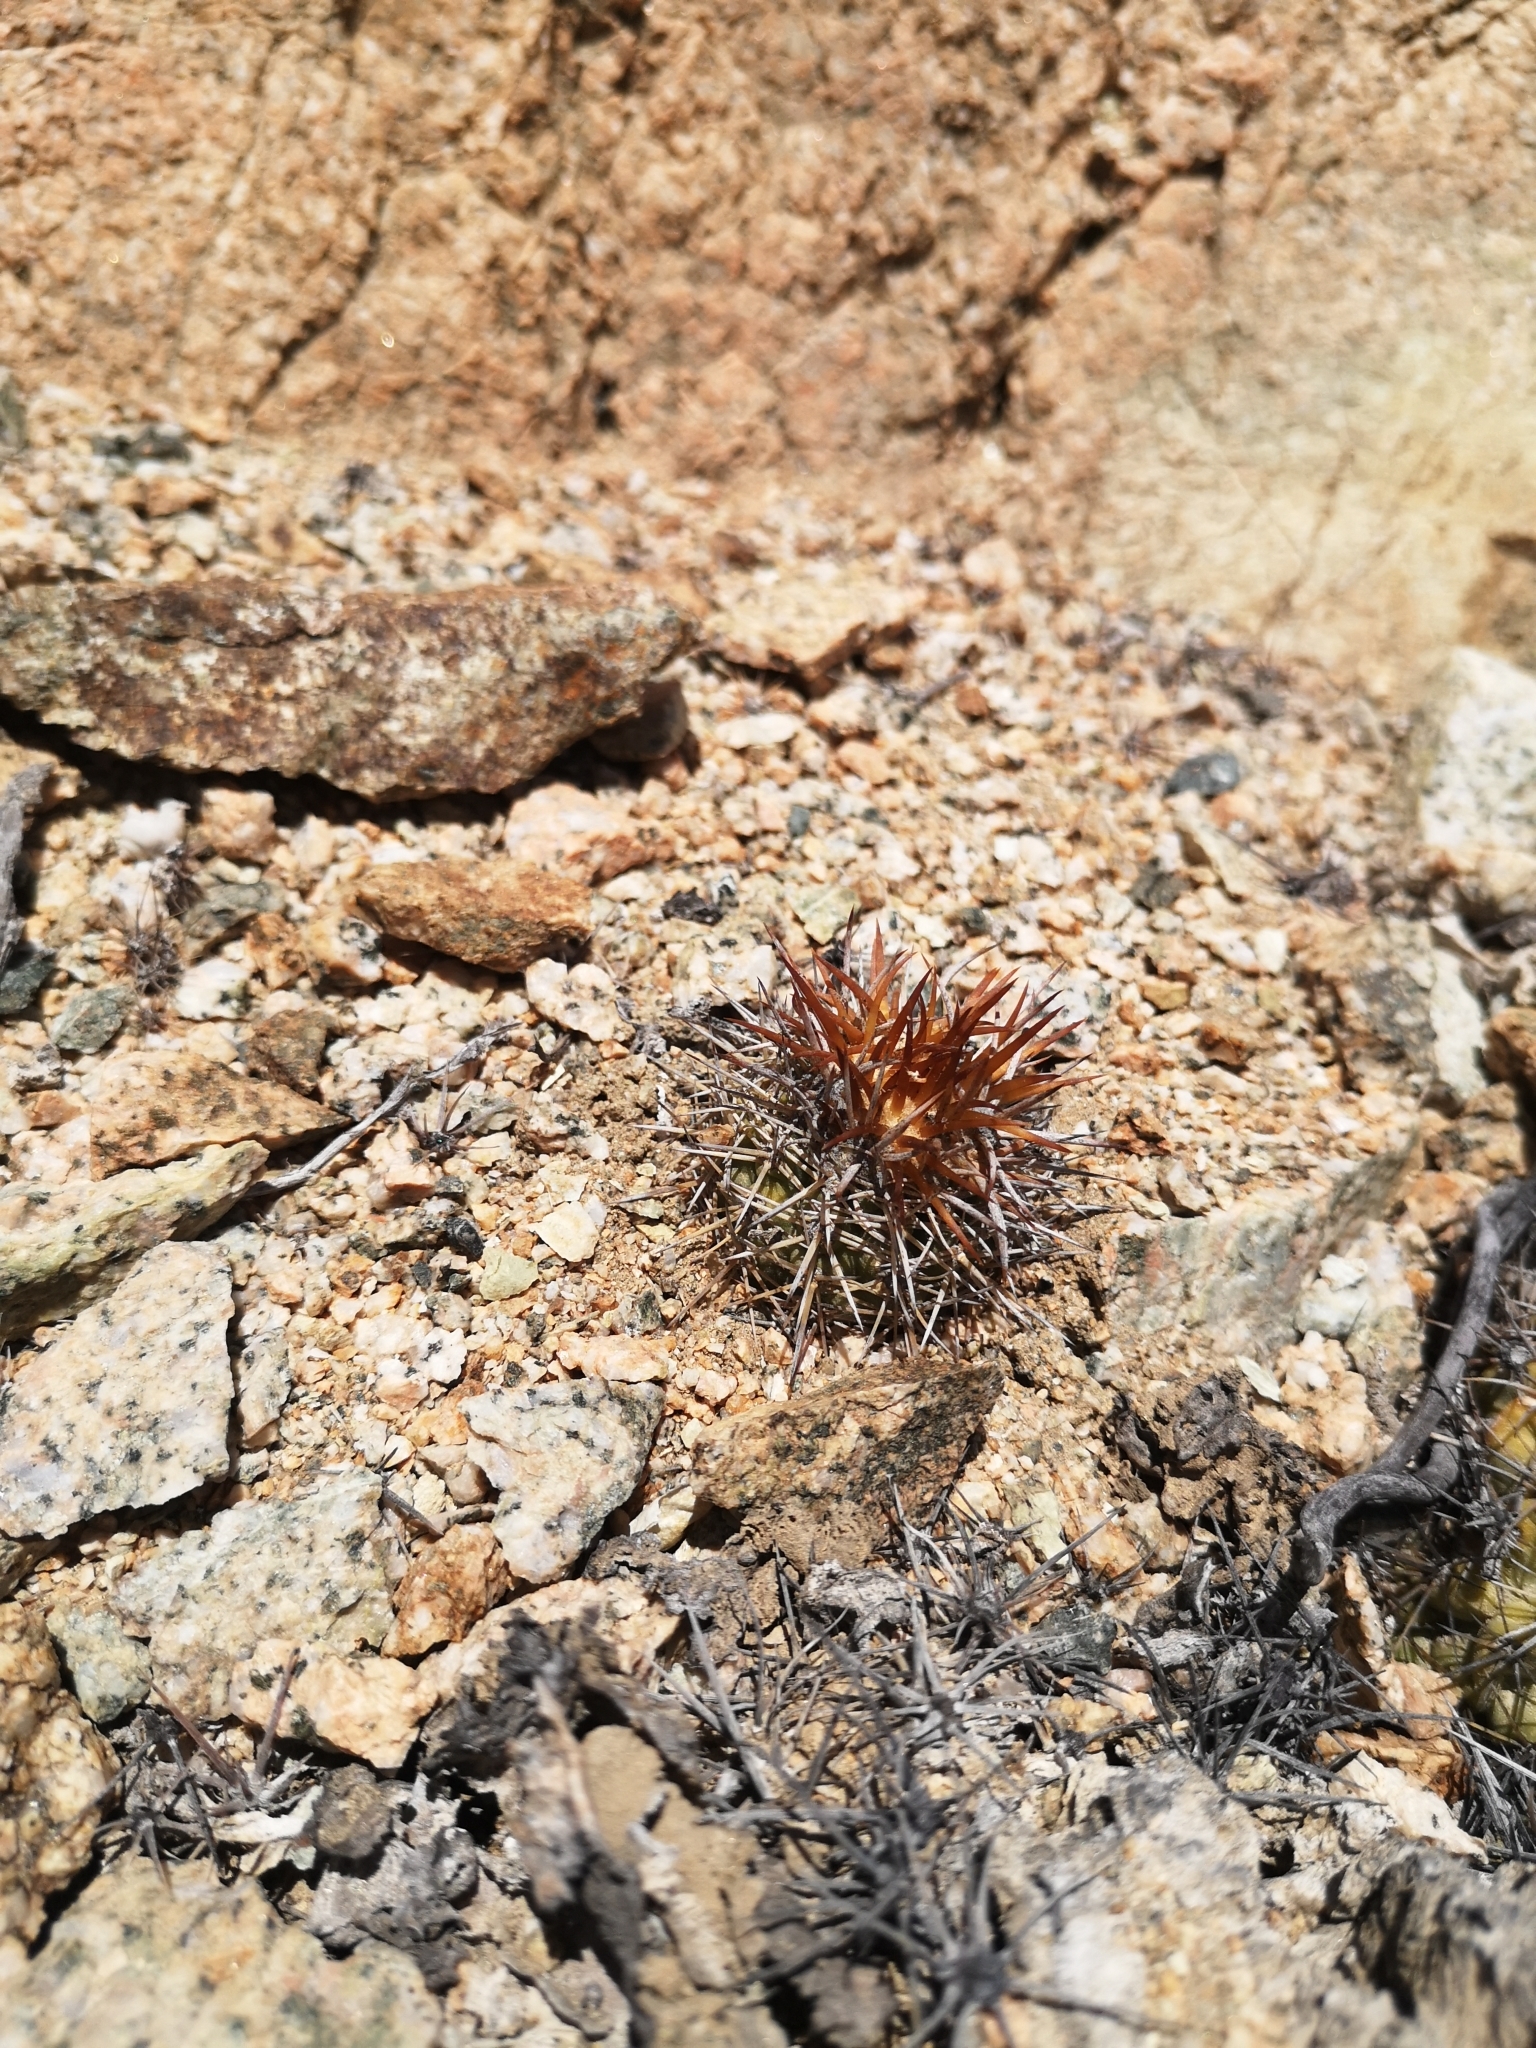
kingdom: Plantae
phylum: Tracheophyta
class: Magnoliopsida
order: Caryophyllales
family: Cactaceae
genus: Copiapoa
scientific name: Copiapoa decorticans
